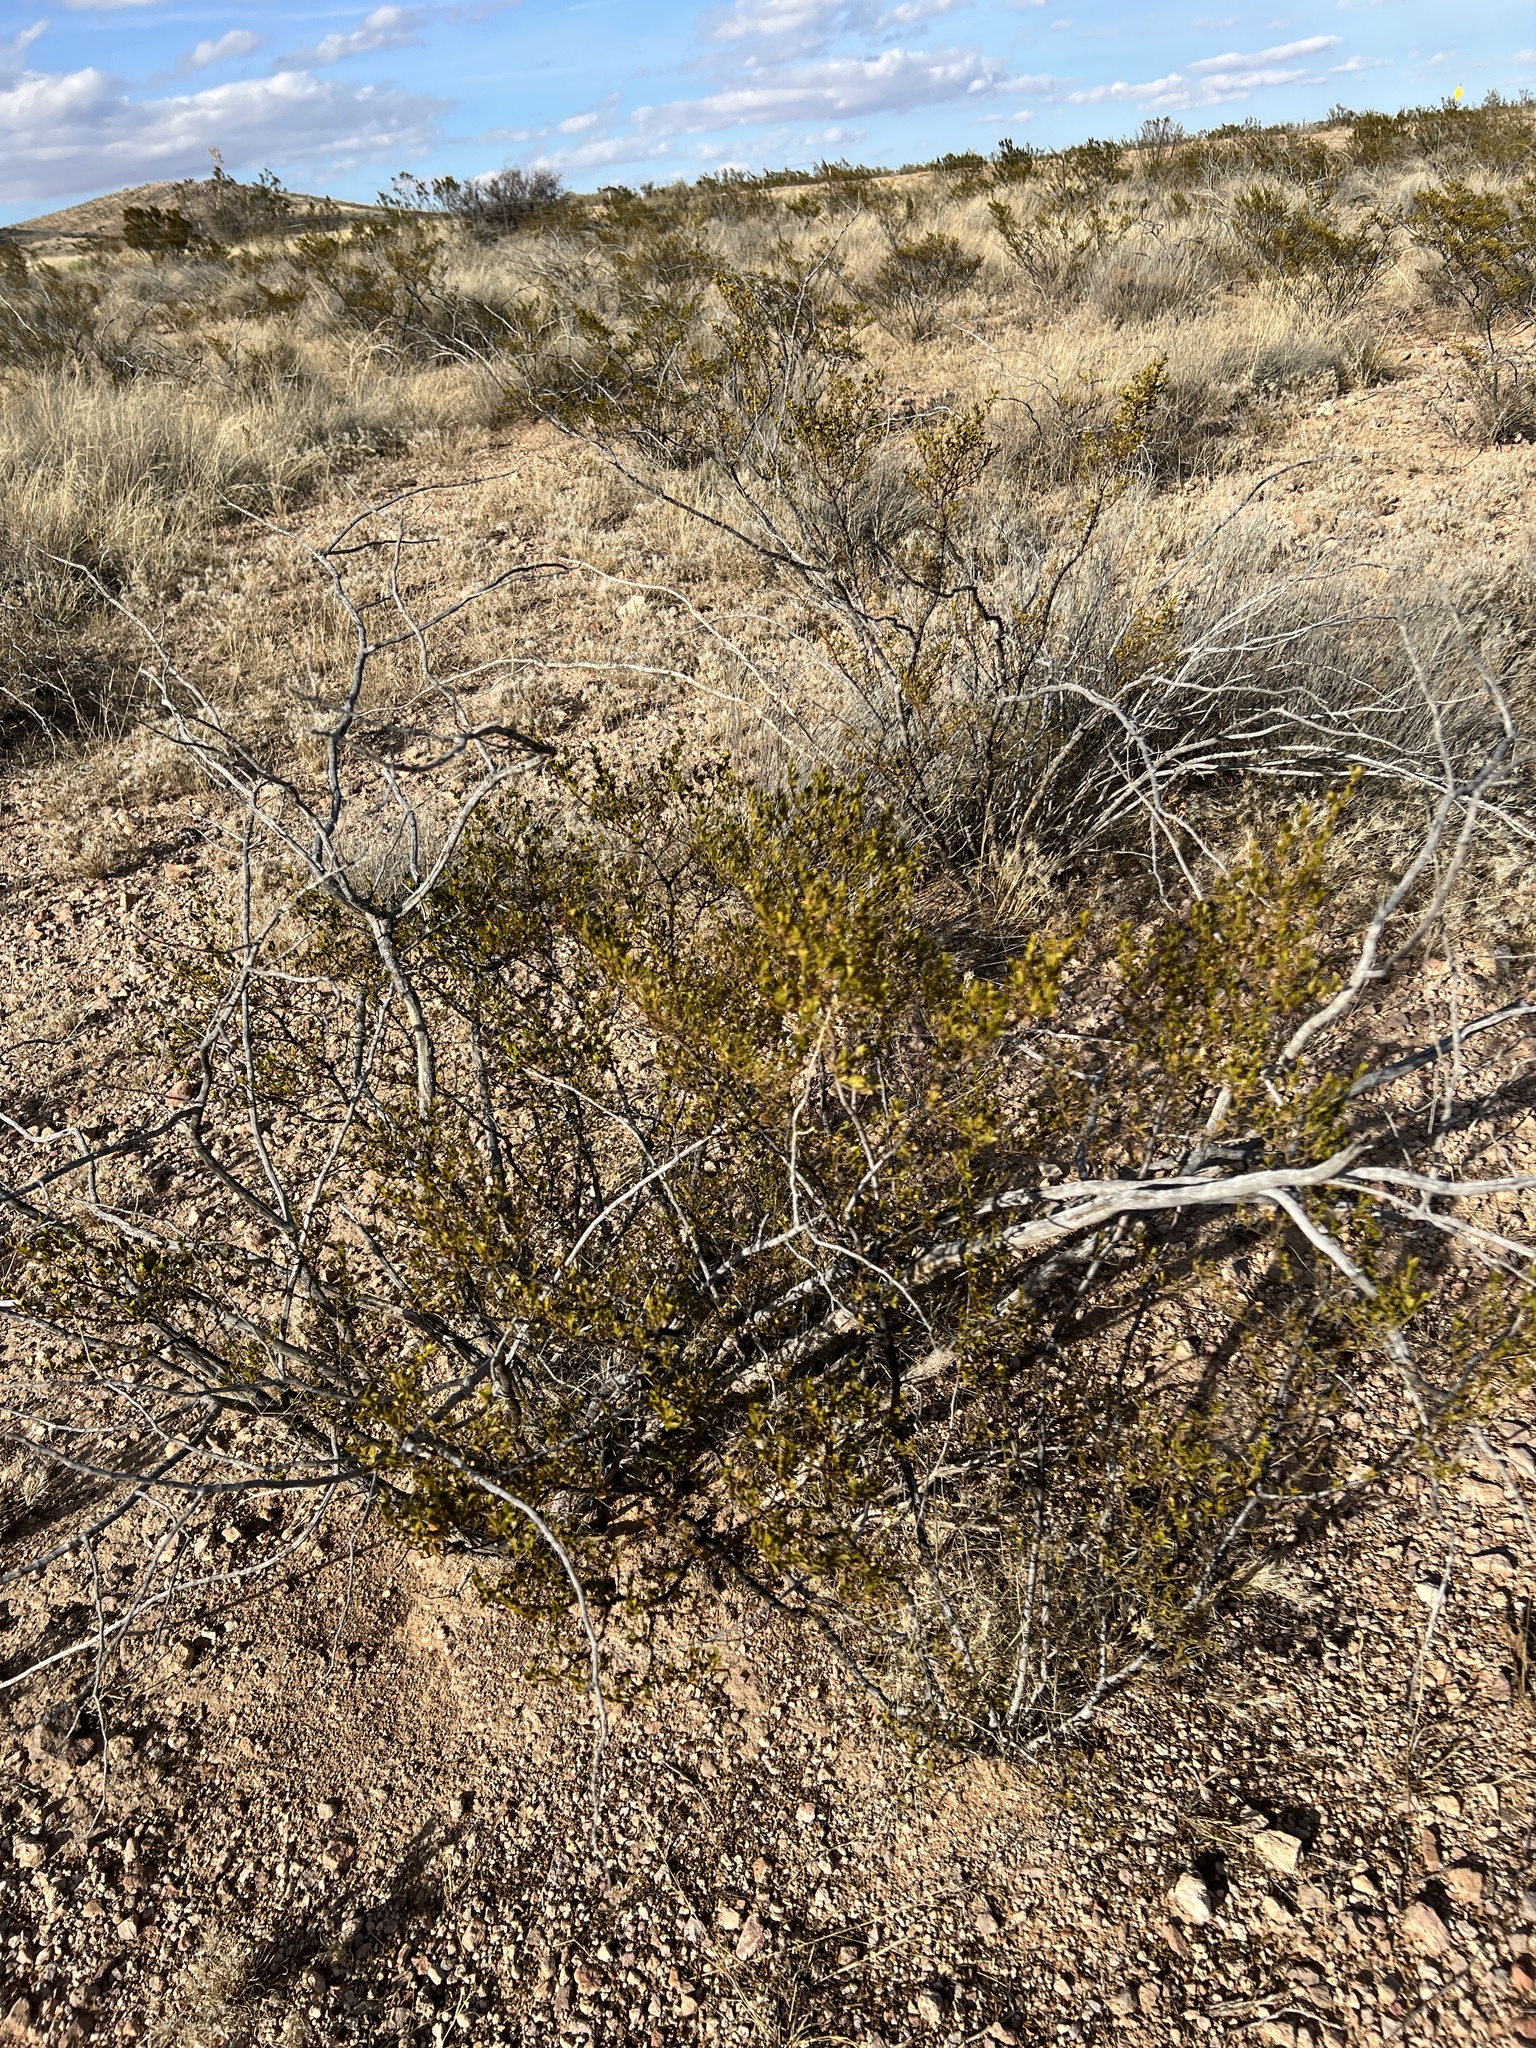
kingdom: Plantae
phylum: Tracheophyta
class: Magnoliopsida
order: Zygophyllales
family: Zygophyllaceae
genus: Larrea
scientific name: Larrea tridentata
